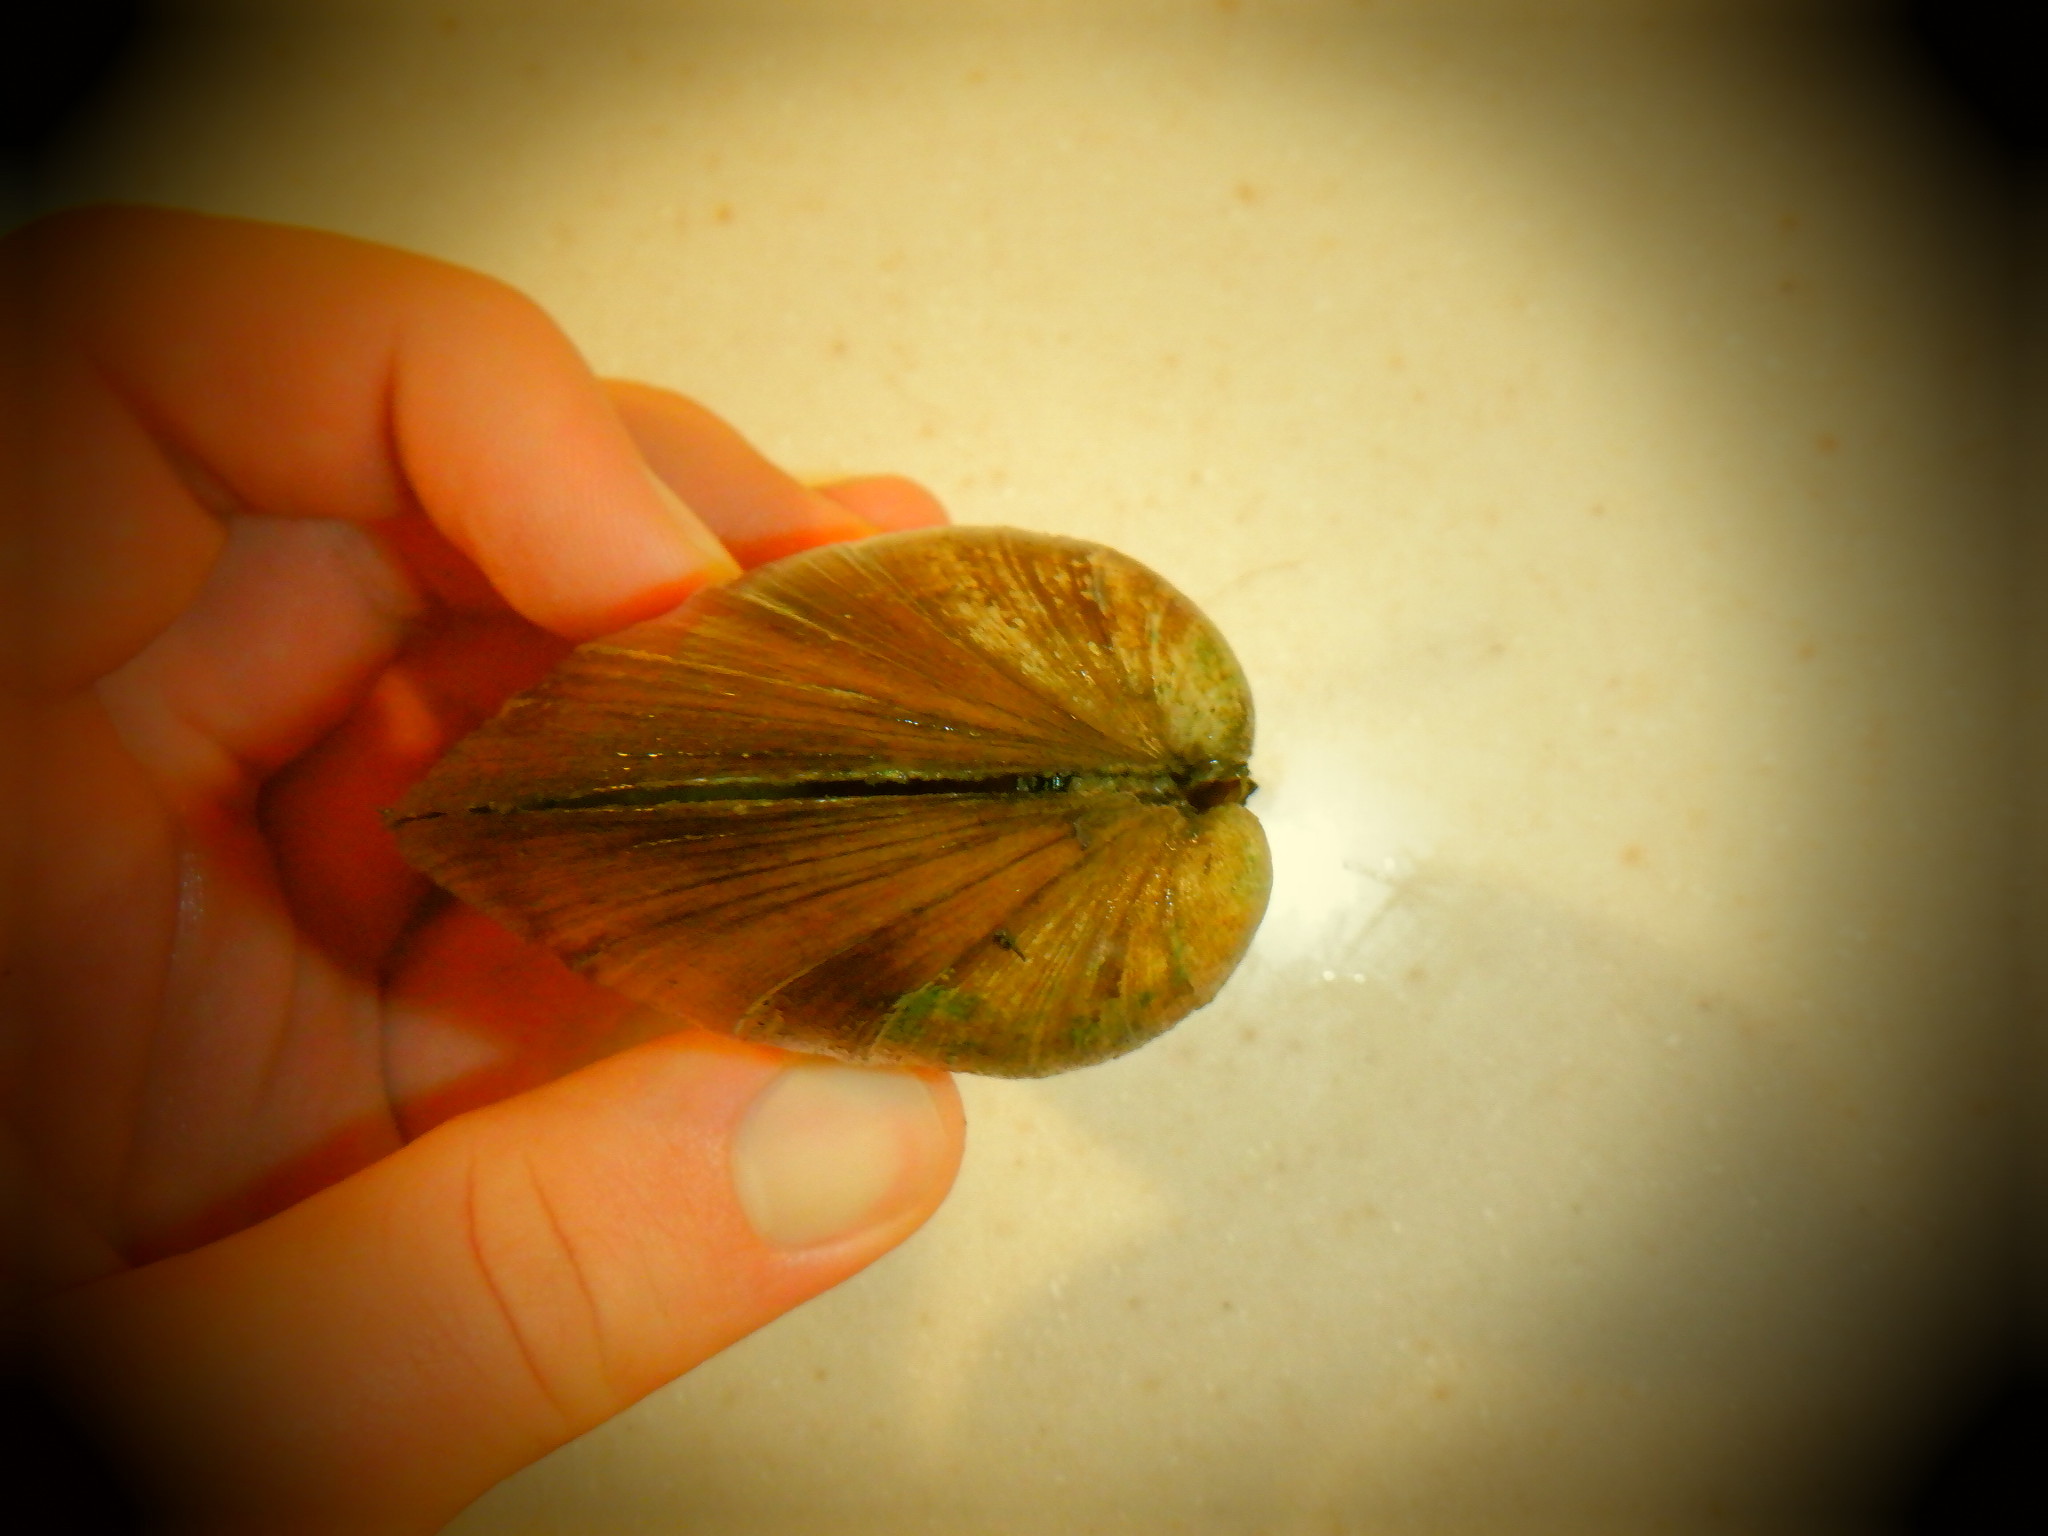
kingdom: Animalia
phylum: Mollusca
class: Bivalvia
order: Unionida
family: Unionidae
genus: Fusconaia
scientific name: Fusconaia flava
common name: Wabash pigtoe
